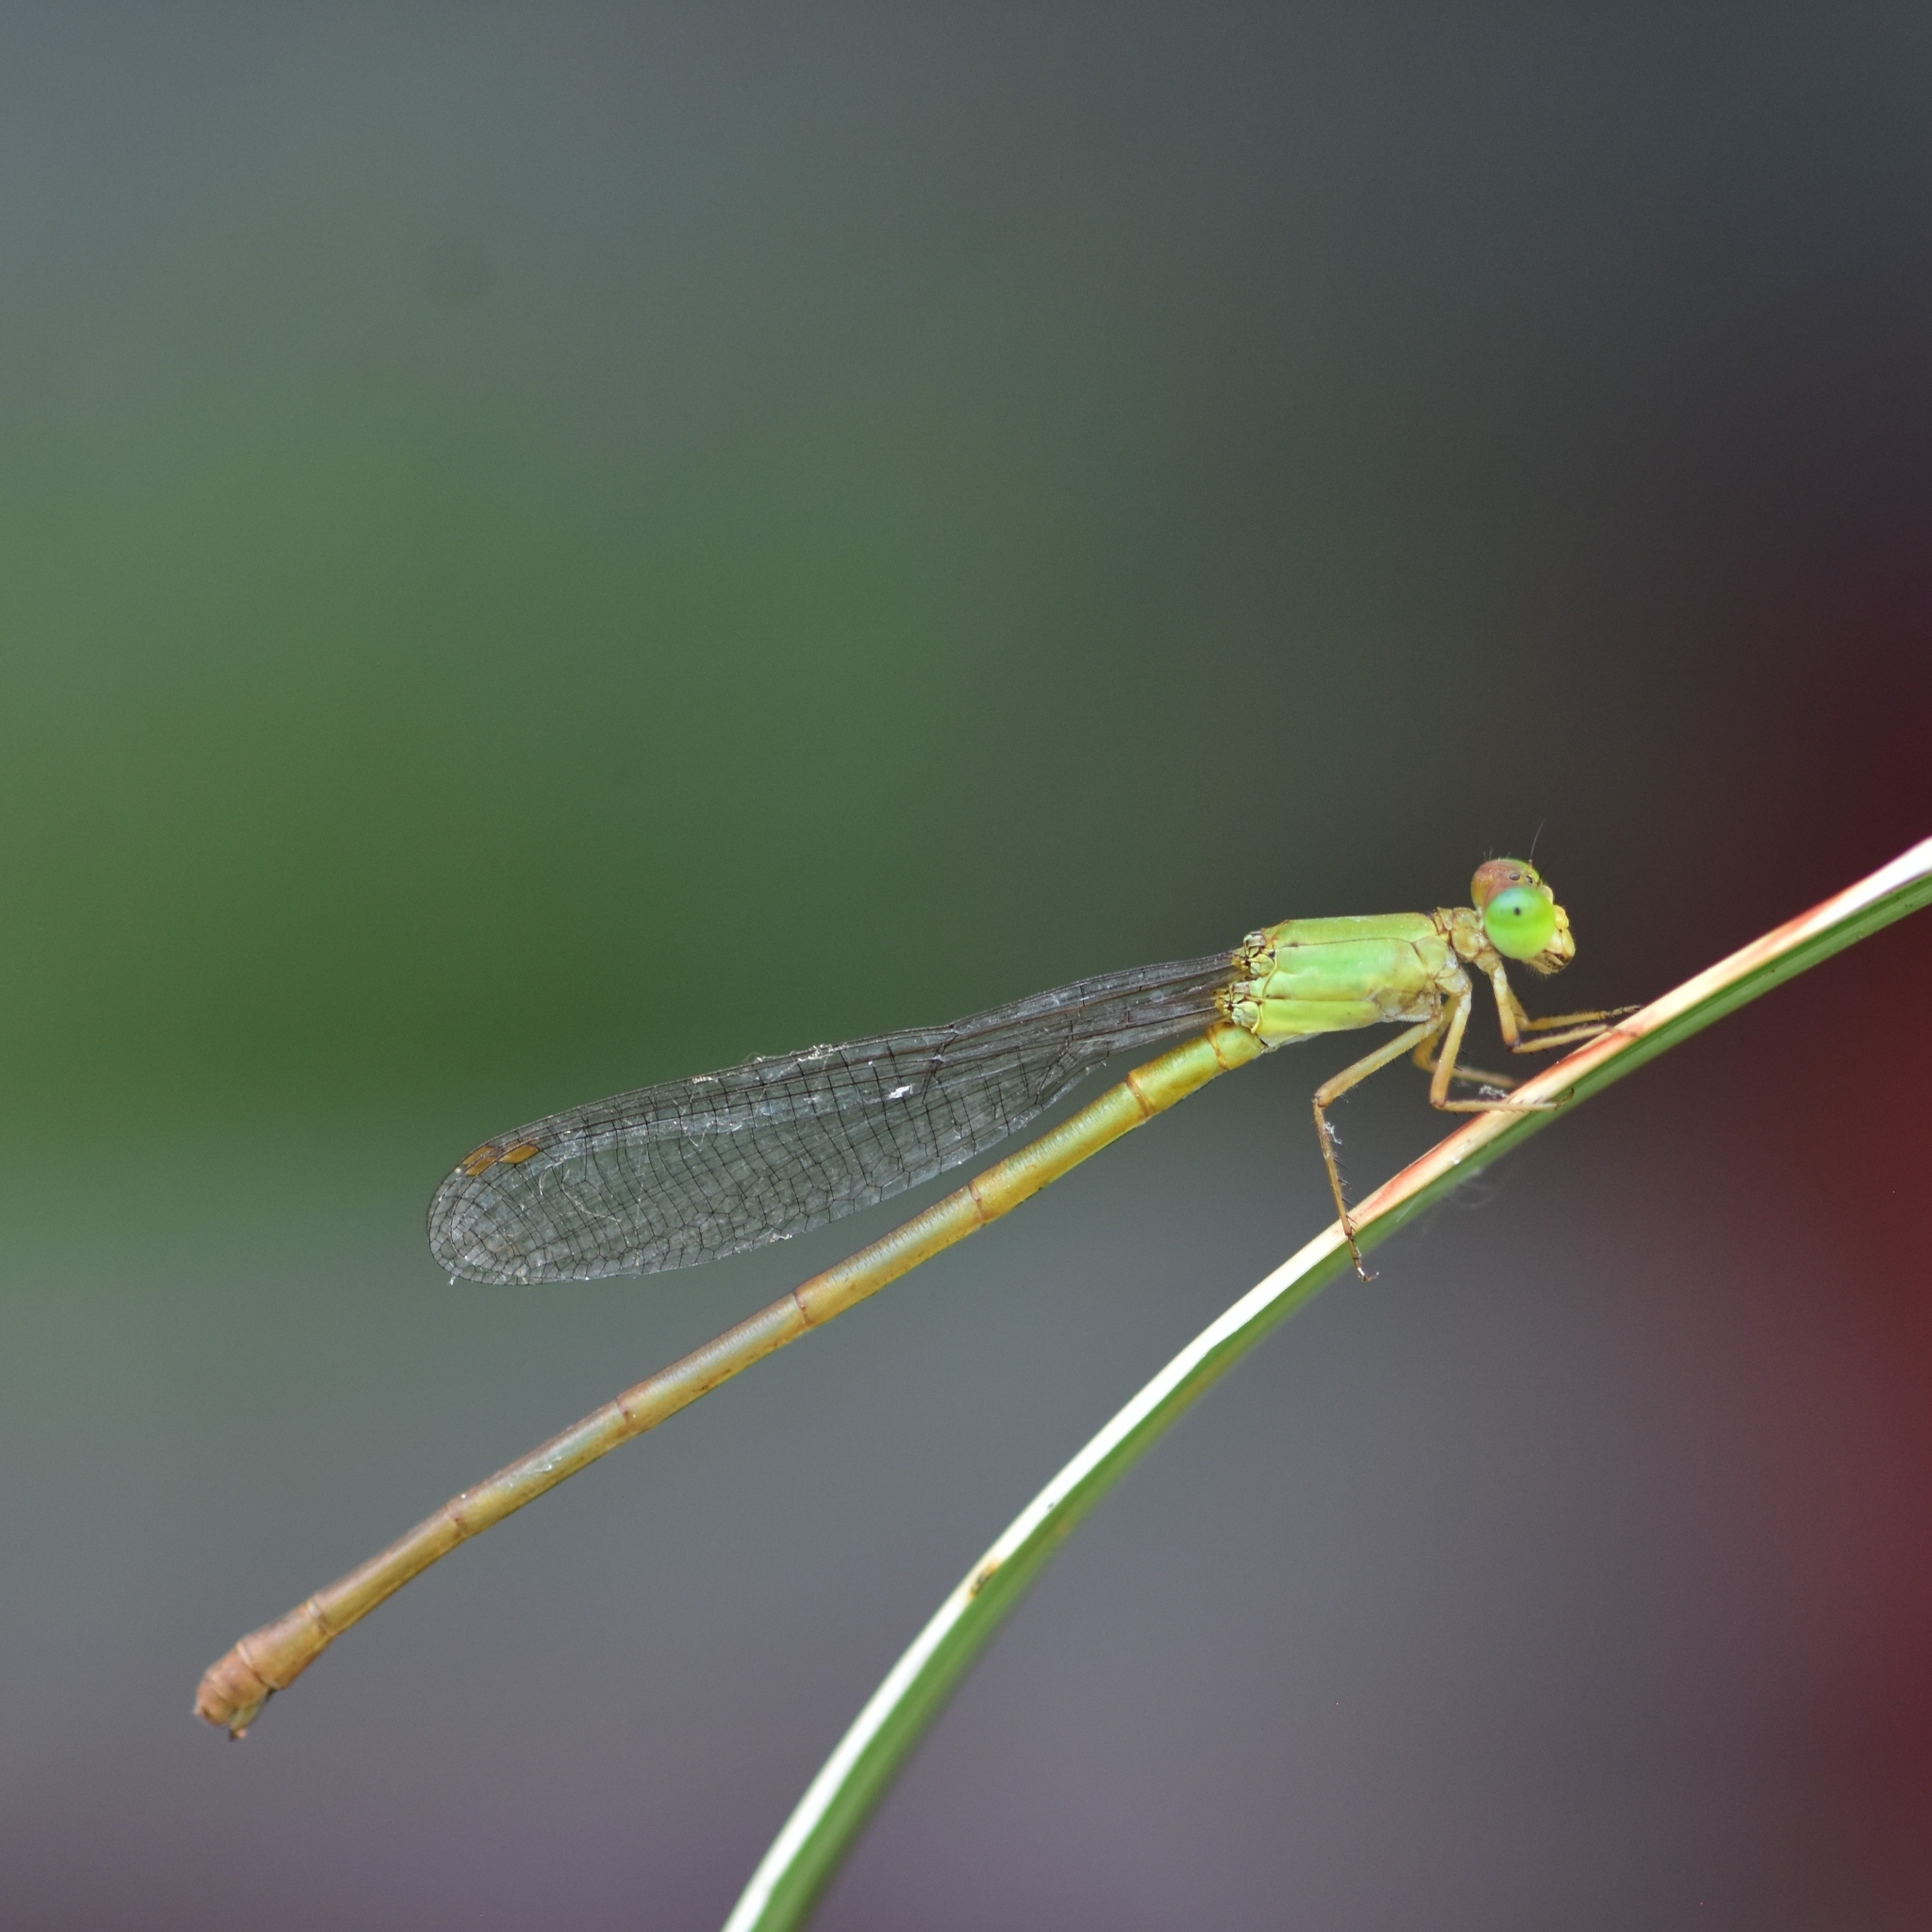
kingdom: Animalia
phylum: Arthropoda
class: Insecta
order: Odonata
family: Coenagrionidae
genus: Ceriagrion
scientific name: Ceriagrion coromandelianum
